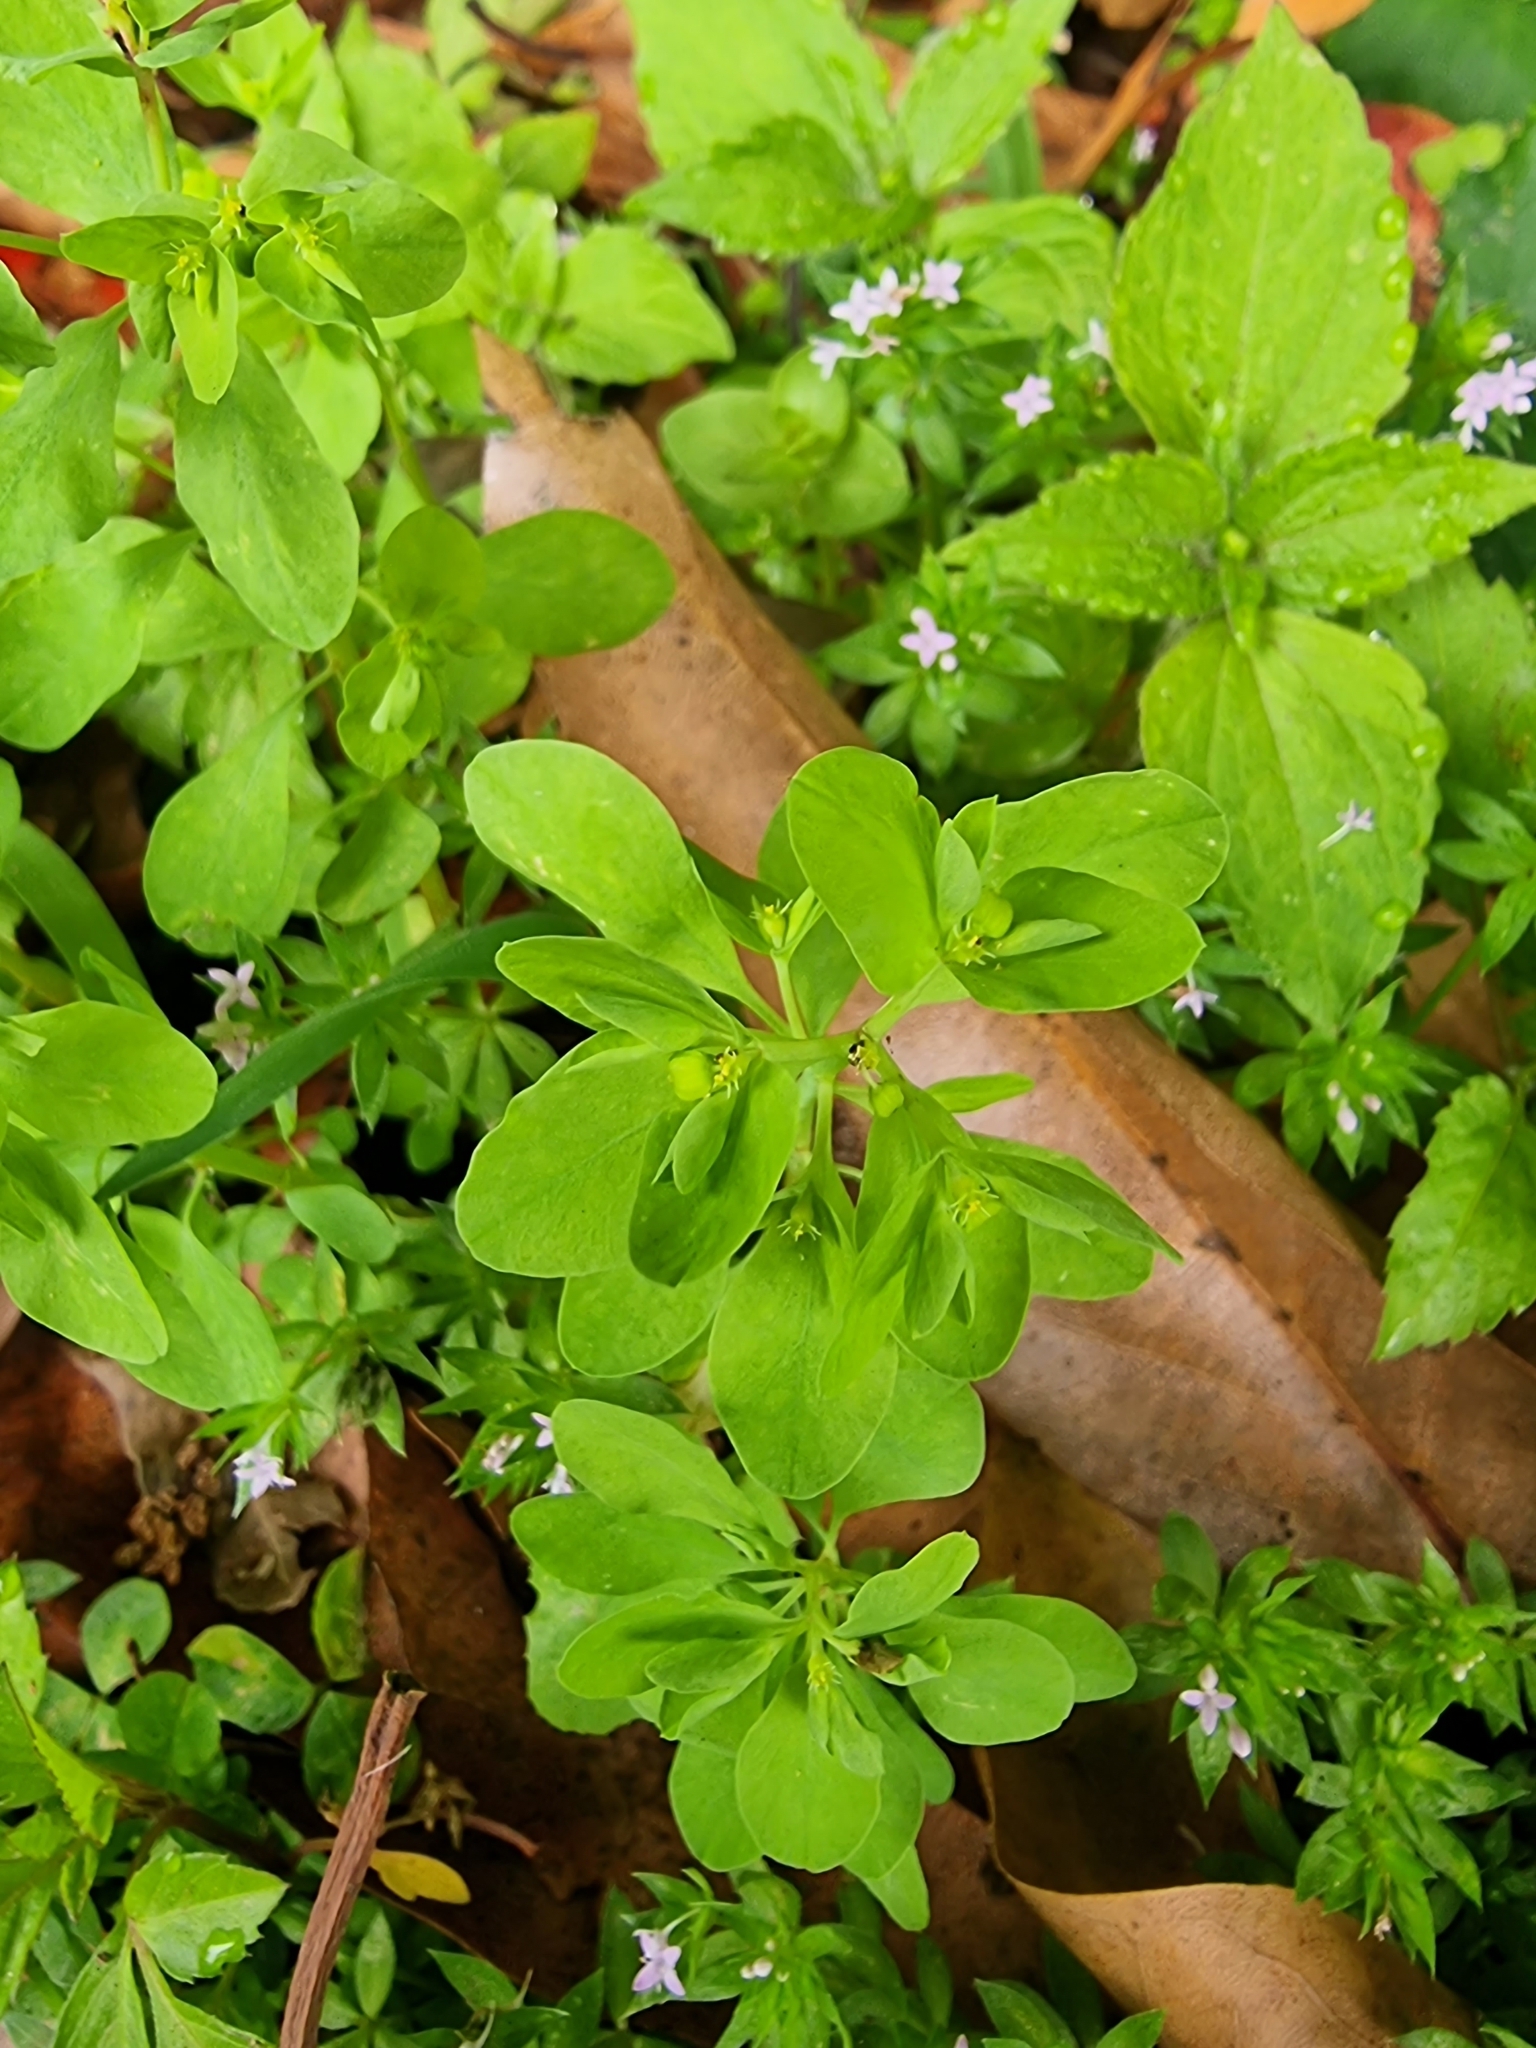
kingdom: Plantae
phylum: Tracheophyta
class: Magnoliopsida
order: Malpighiales
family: Euphorbiaceae
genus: Euphorbia
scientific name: Euphorbia peplus
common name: Petty spurge
